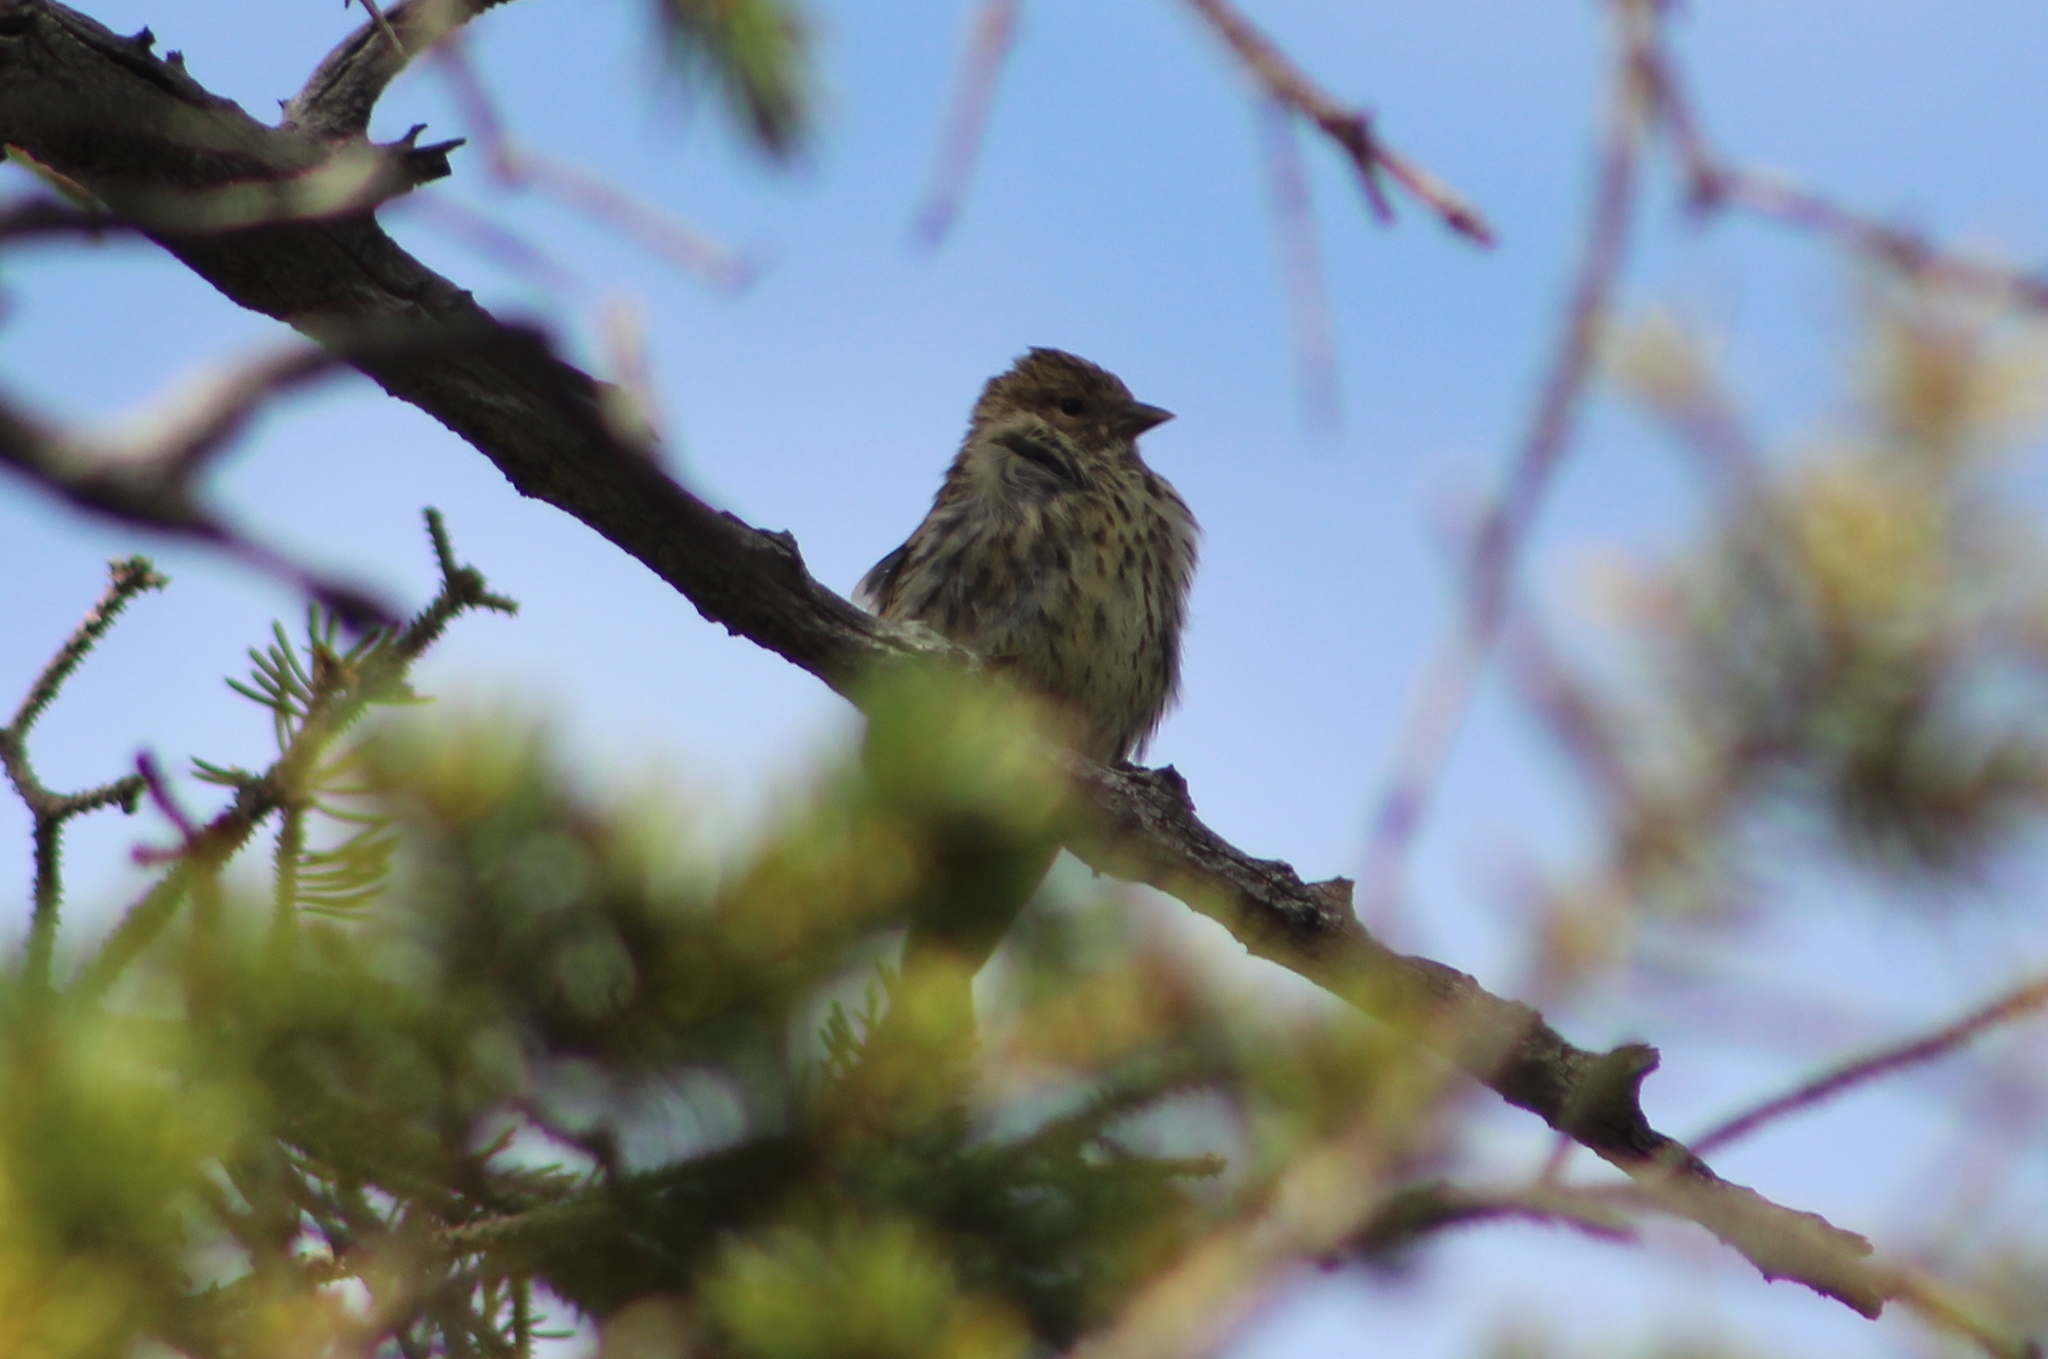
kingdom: Animalia
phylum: Chordata
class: Aves
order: Passeriformes
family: Fringillidae
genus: Spinus
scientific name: Spinus pinus
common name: Pine siskin
